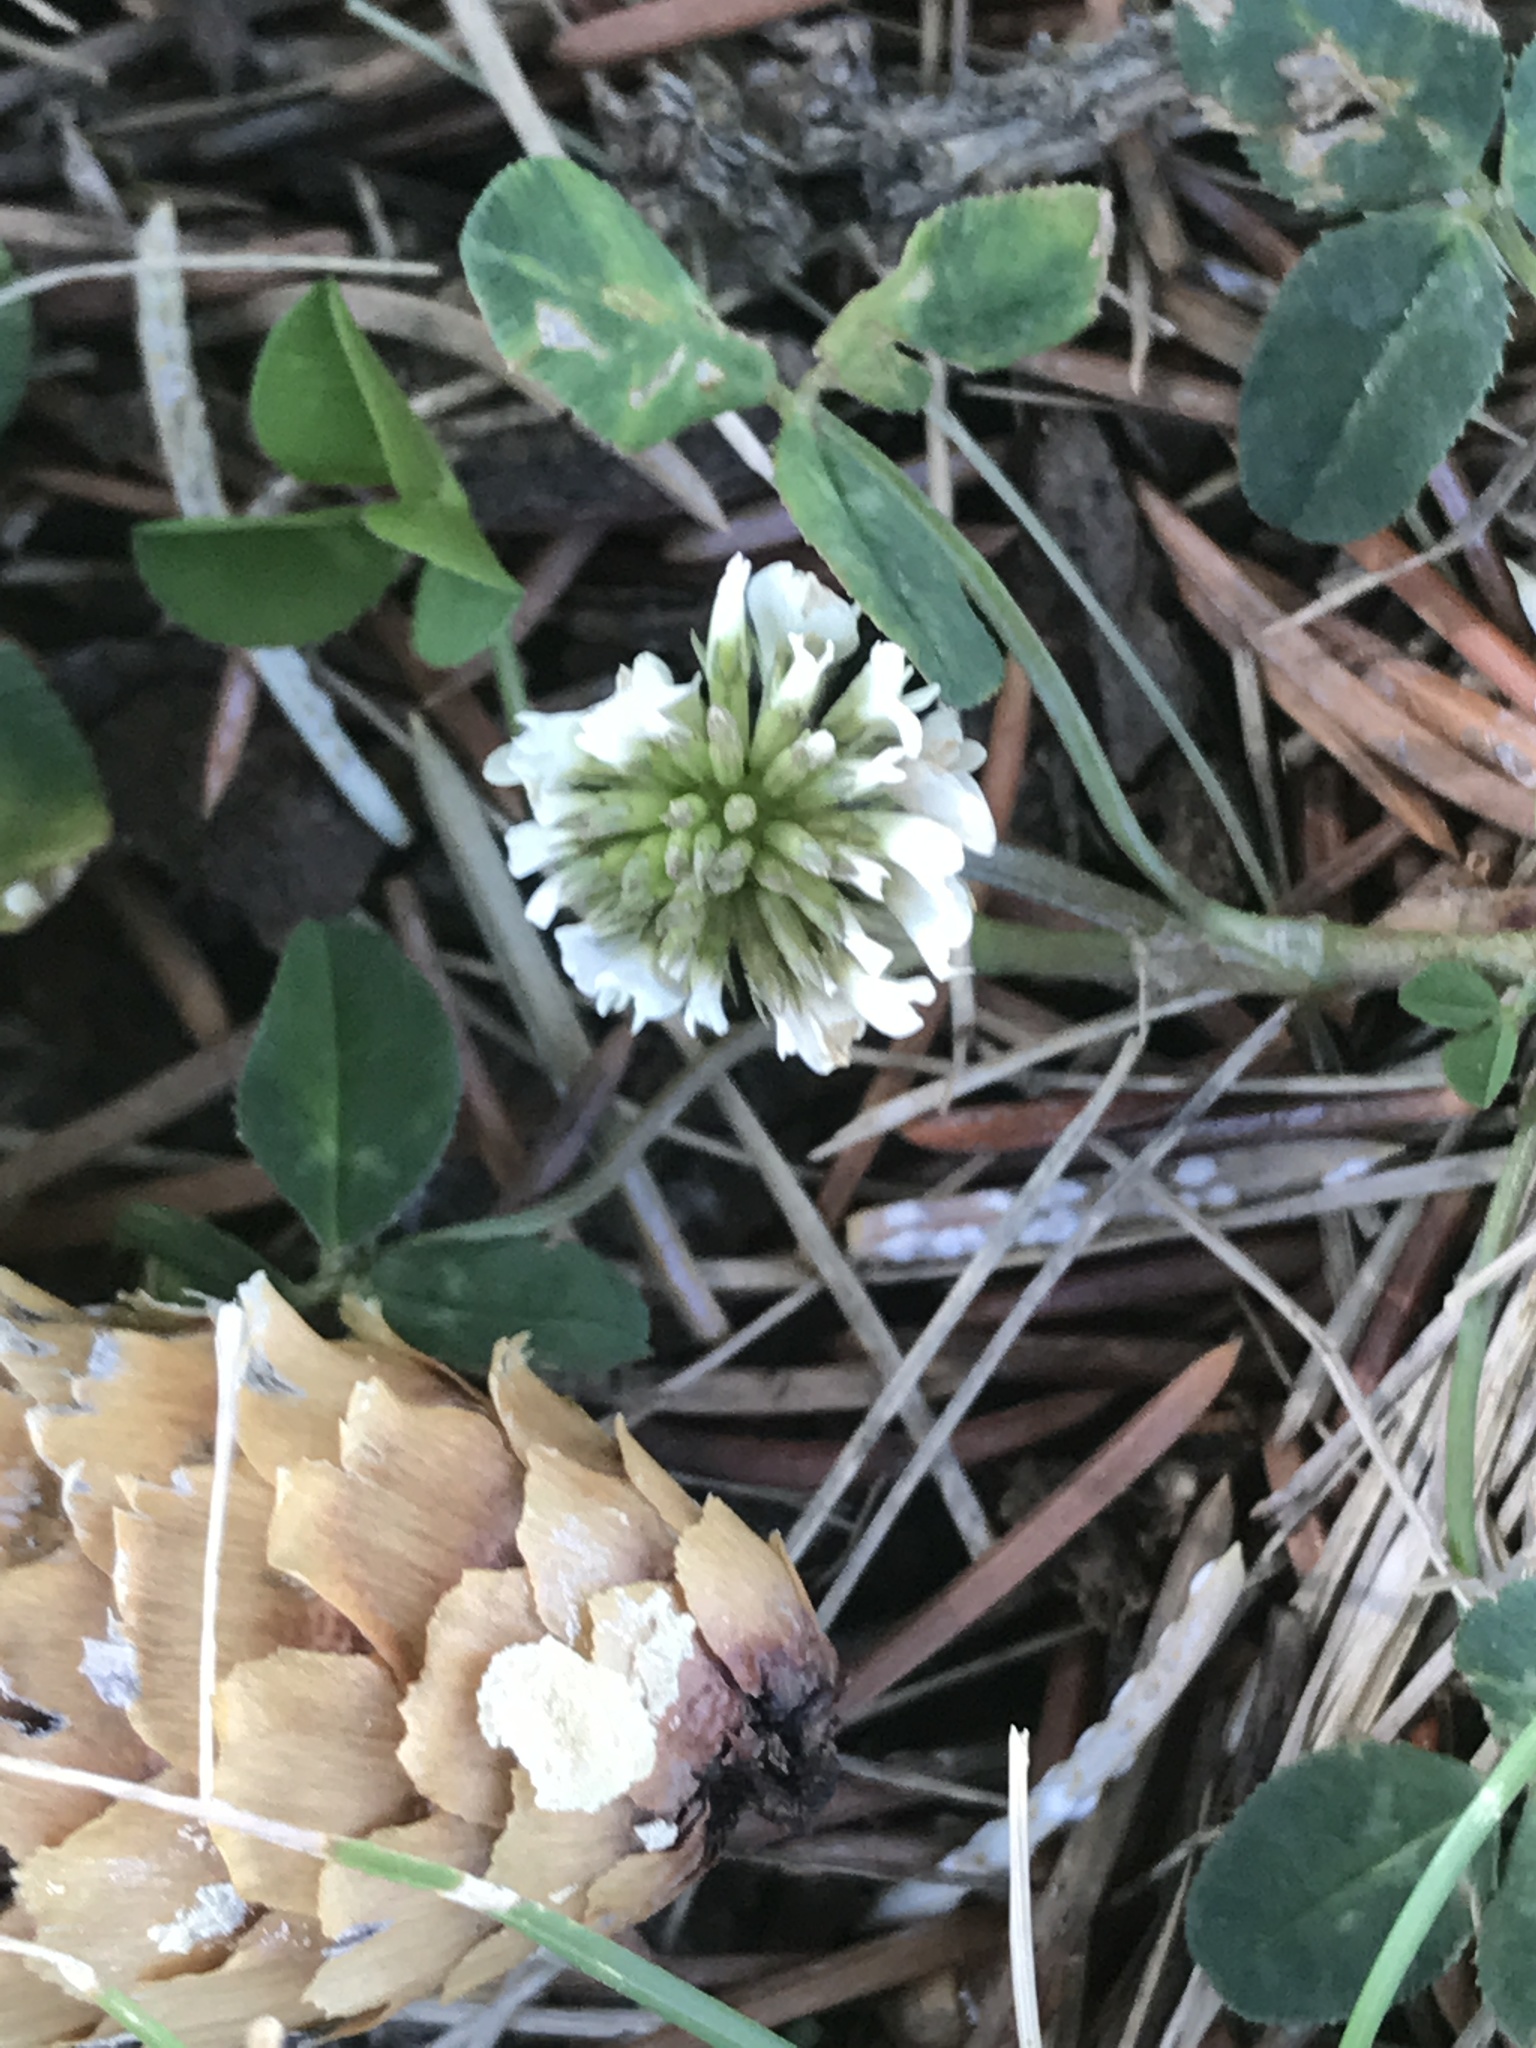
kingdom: Plantae
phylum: Tracheophyta
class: Magnoliopsida
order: Fabales
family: Fabaceae
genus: Trifolium
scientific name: Trifolium repens
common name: White clover
